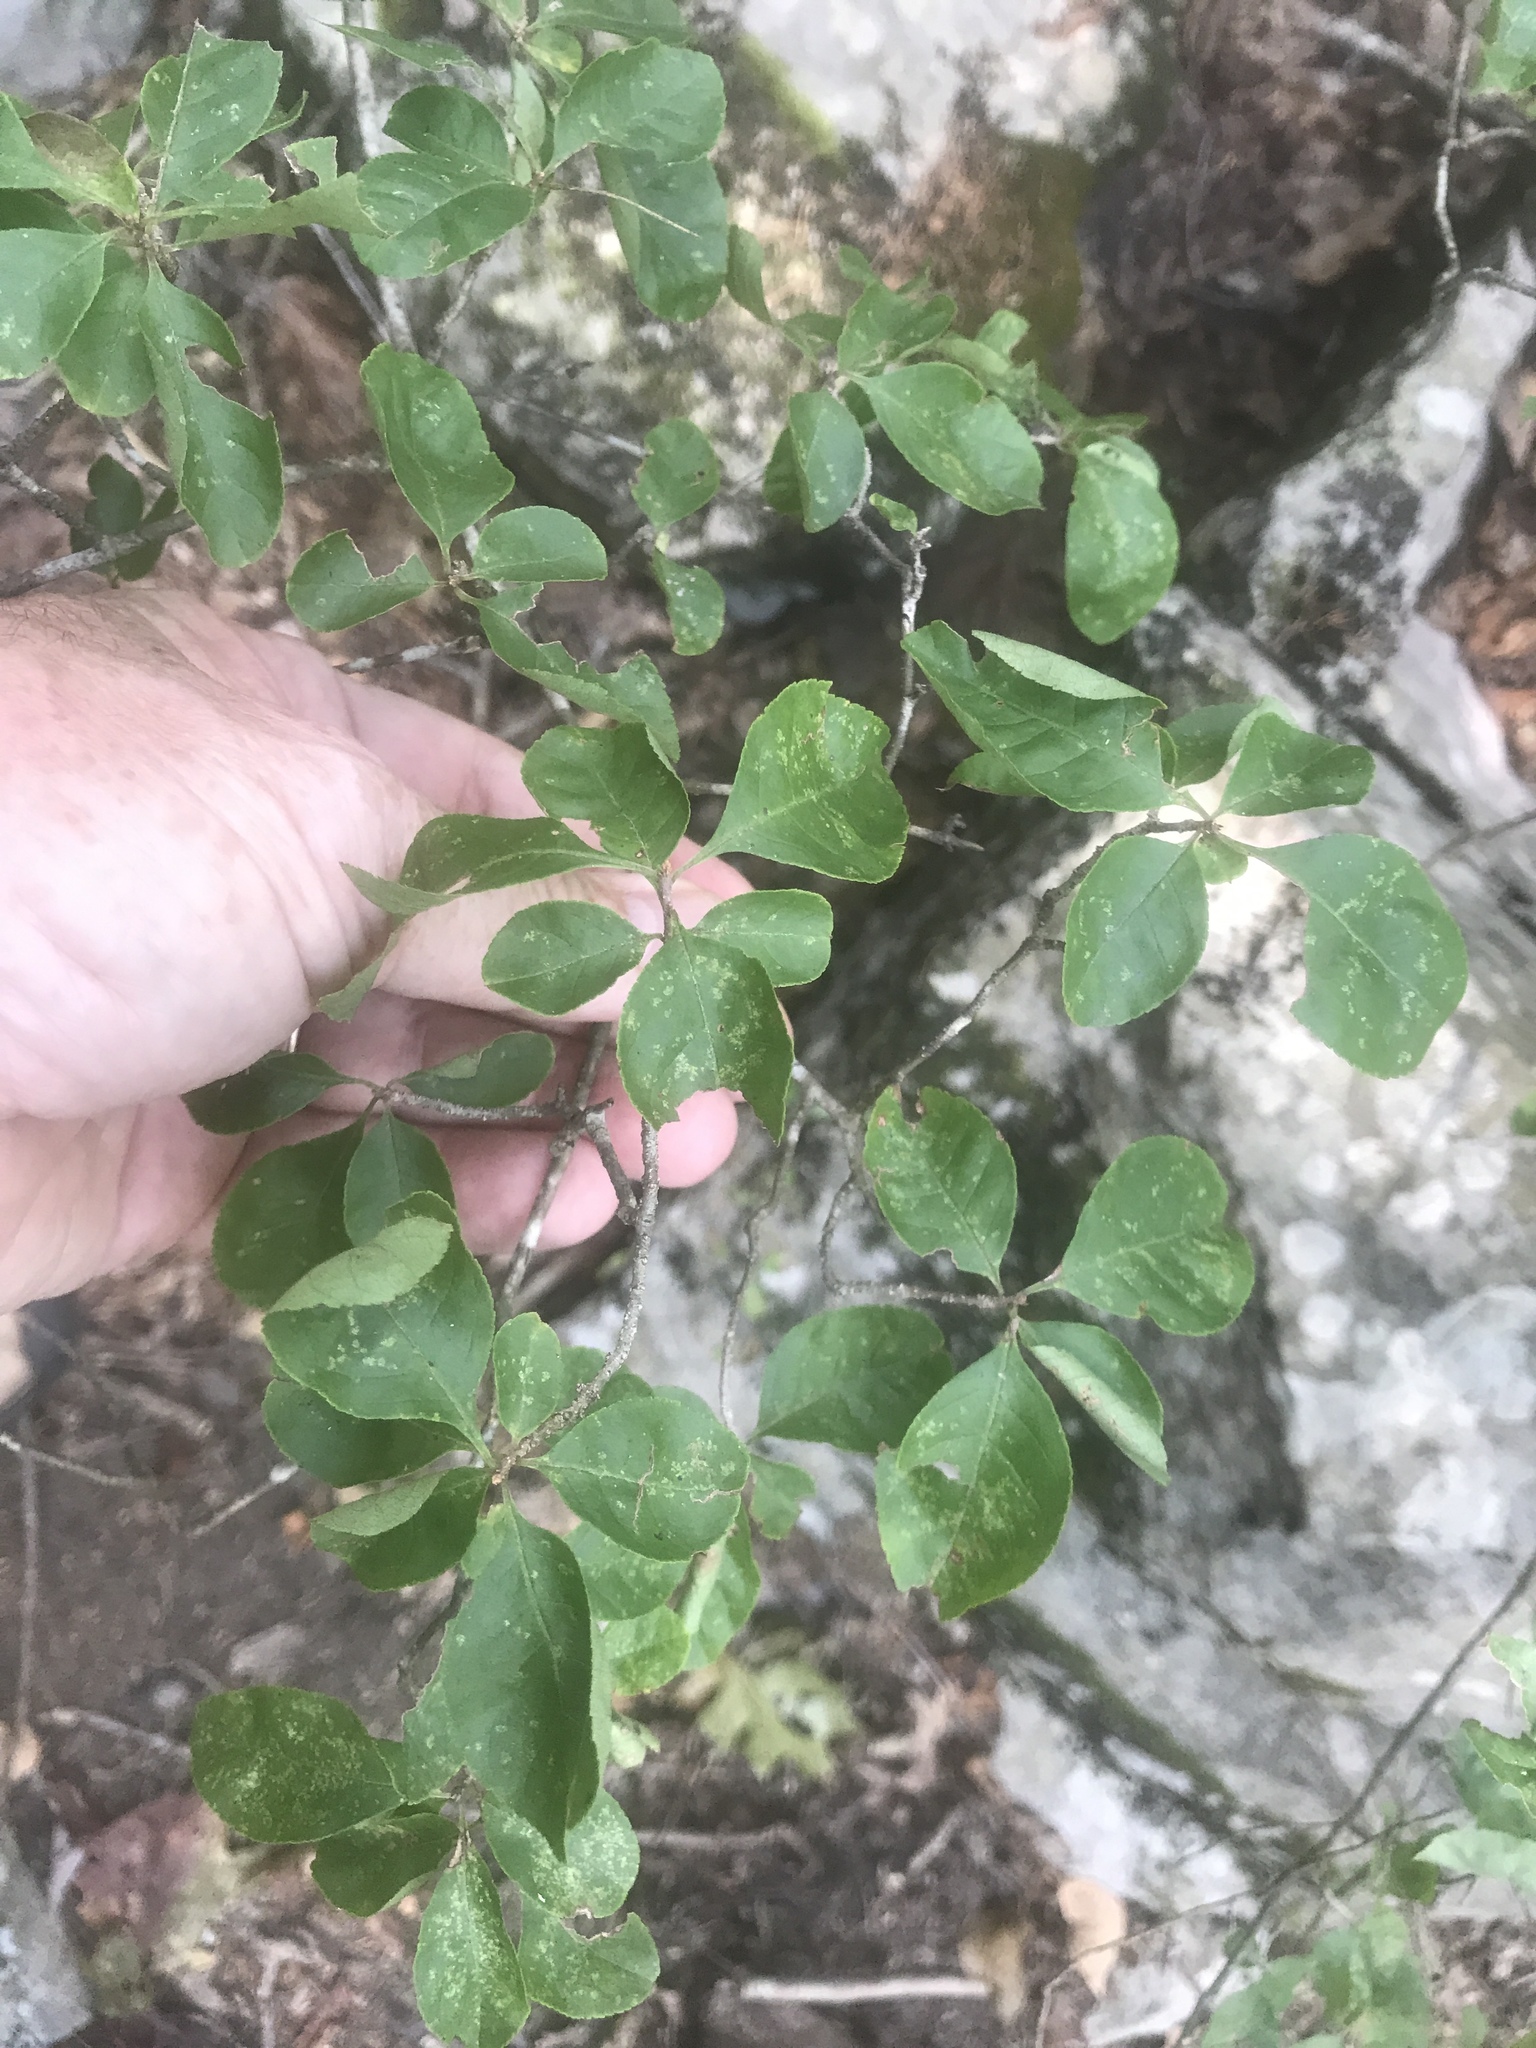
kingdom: Plantae
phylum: Tracheophyta
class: Magnoliopsida
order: Lamiales
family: Oleaceae
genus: Forestiera
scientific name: Forestiera ligustrina
